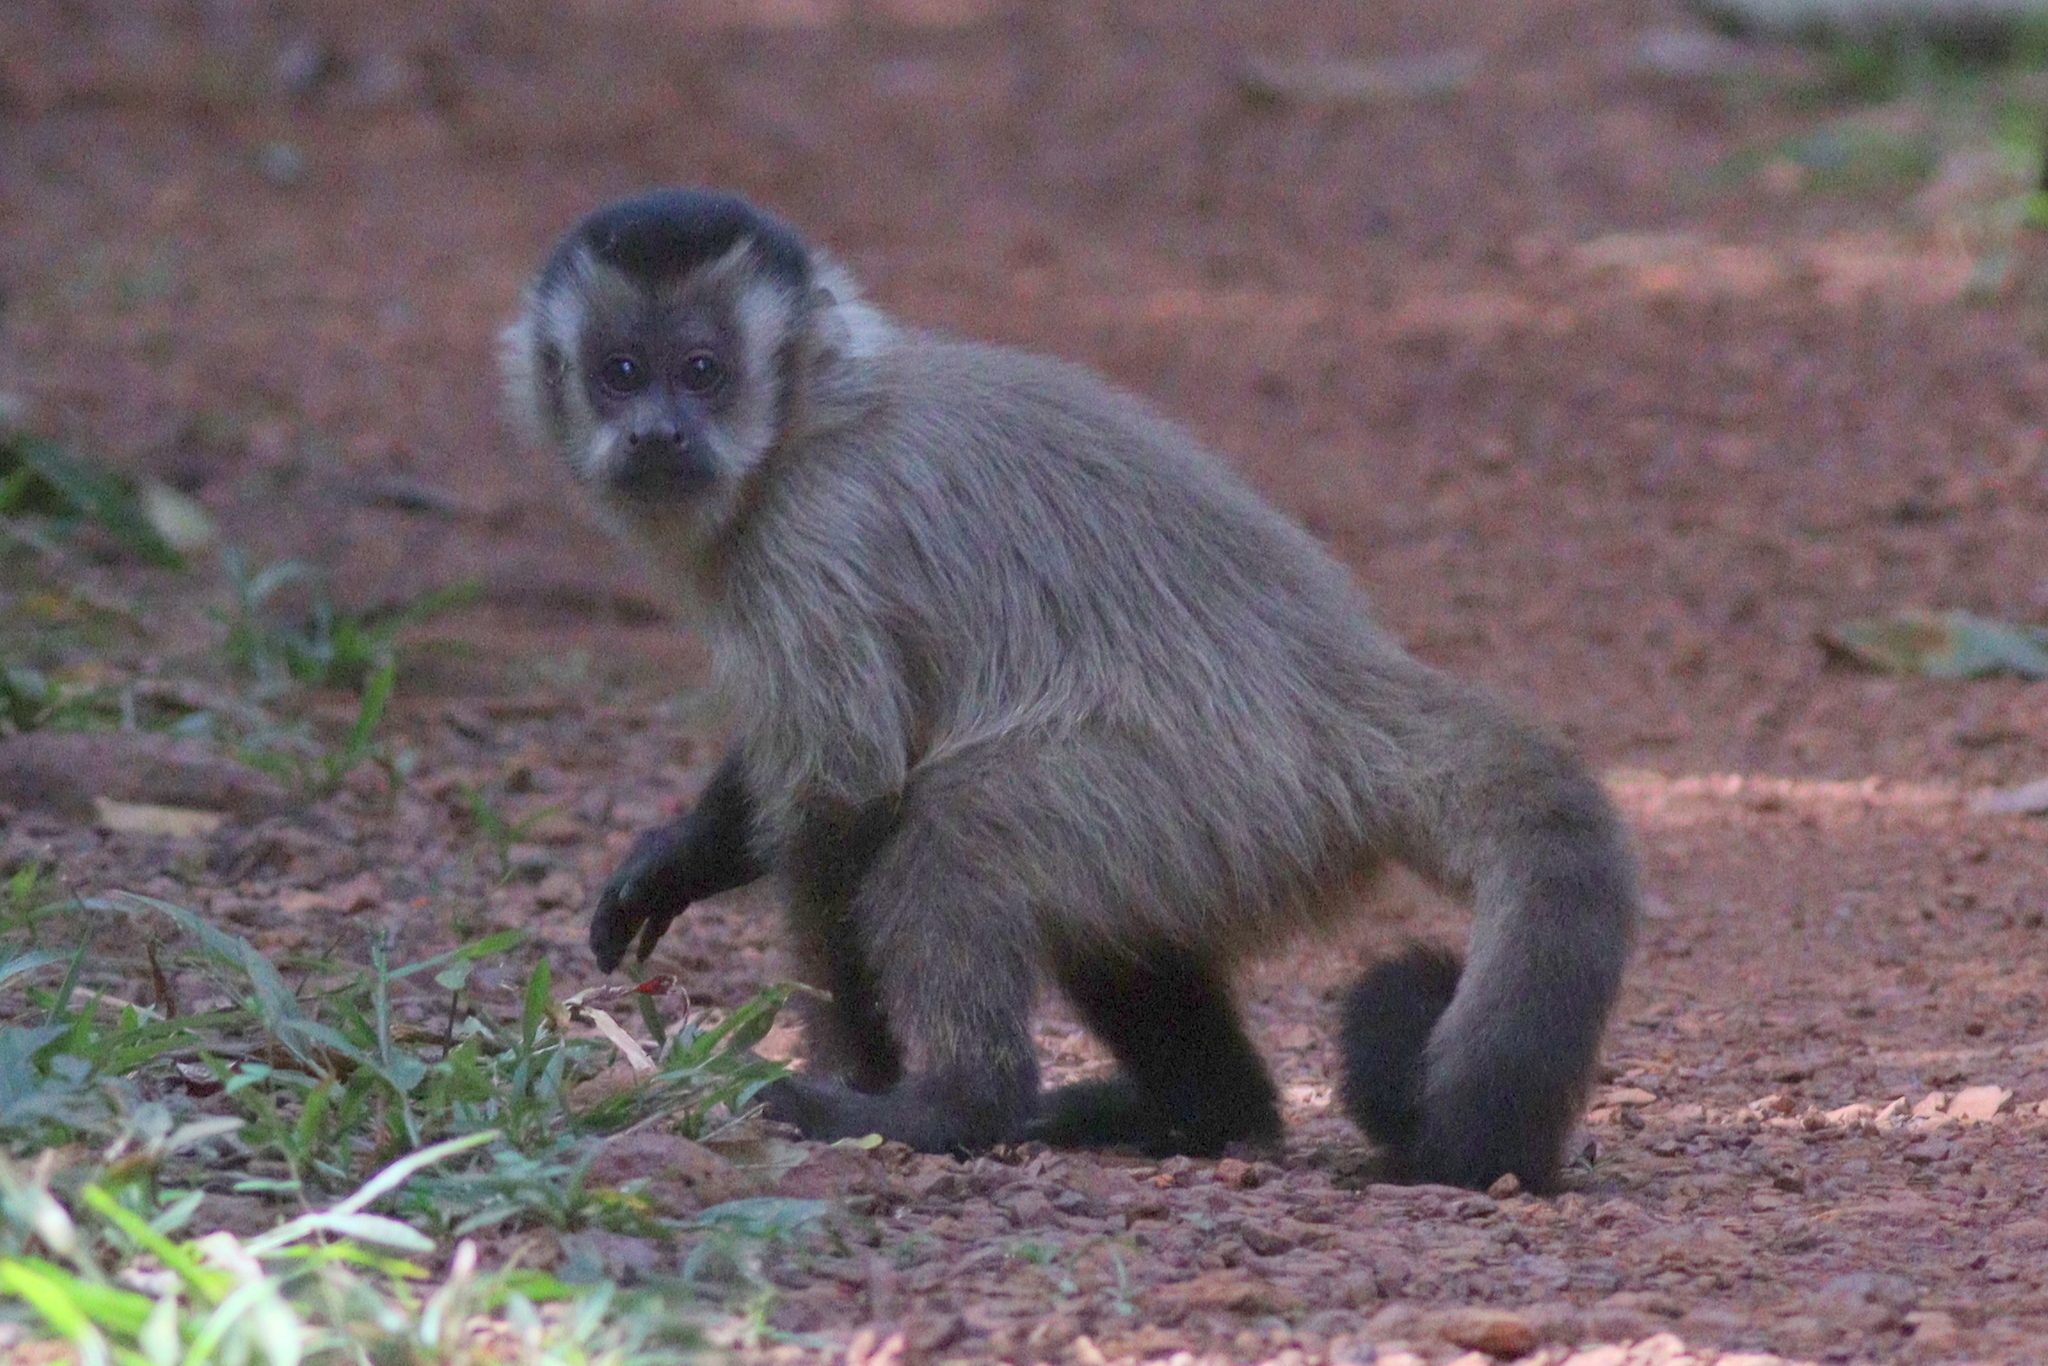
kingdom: Animalia
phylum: Chordata
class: Mammalia
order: Primates
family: Cebidae
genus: Sapajus
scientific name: Sapajus cay
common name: Hooded capuchin
